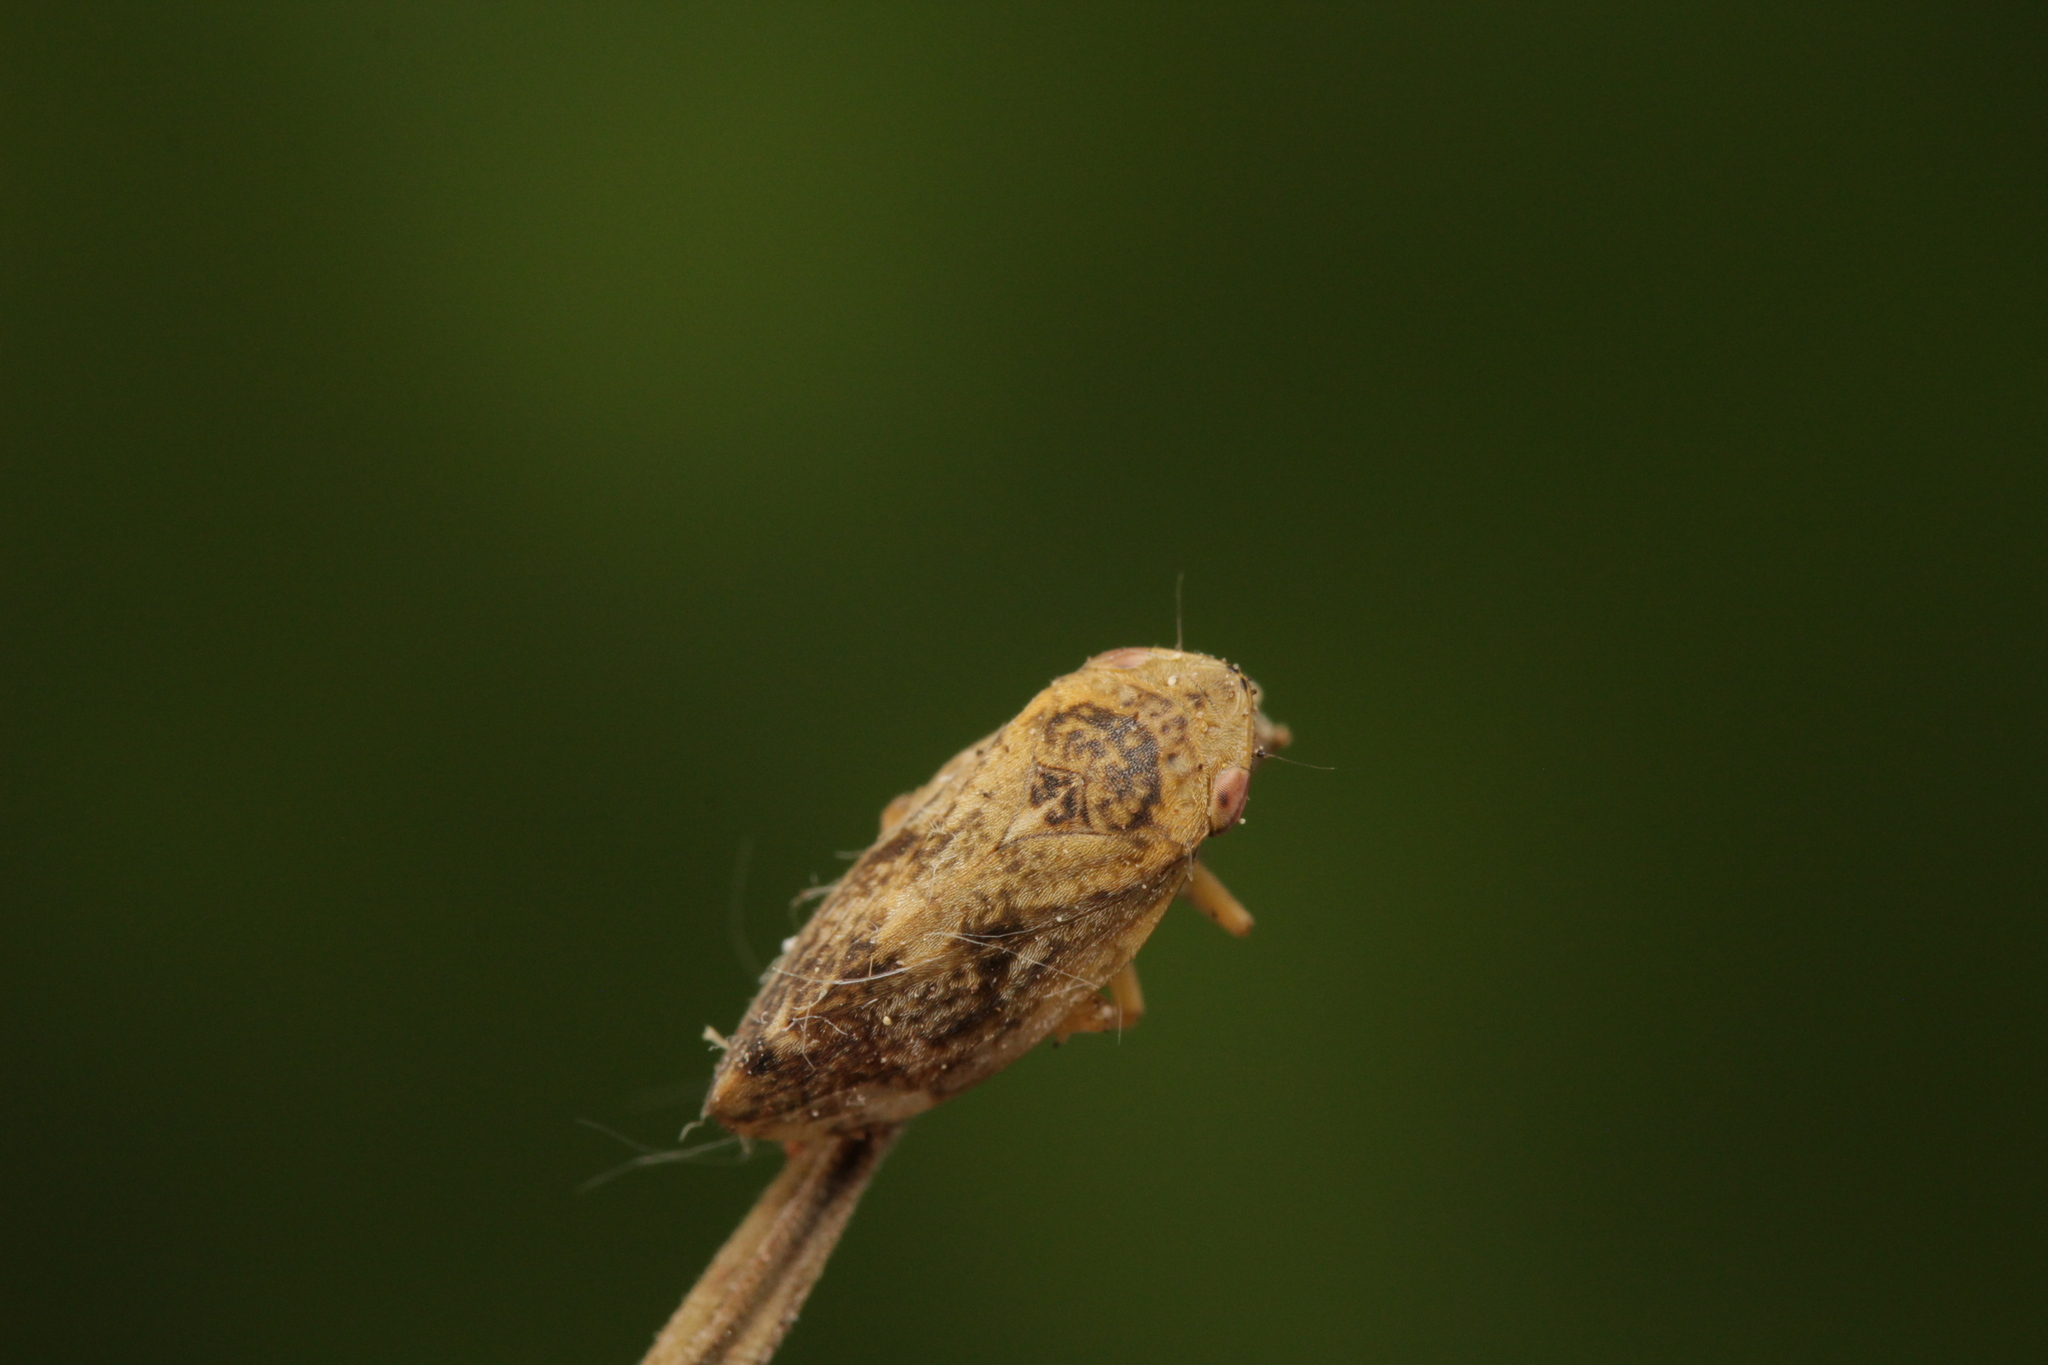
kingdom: Animalia
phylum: Arthropoda
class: Insecta
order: Hemiptera
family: Aphrophoridae
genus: Philaenus
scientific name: Philaenus spumarius
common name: Meadow spittlebug
